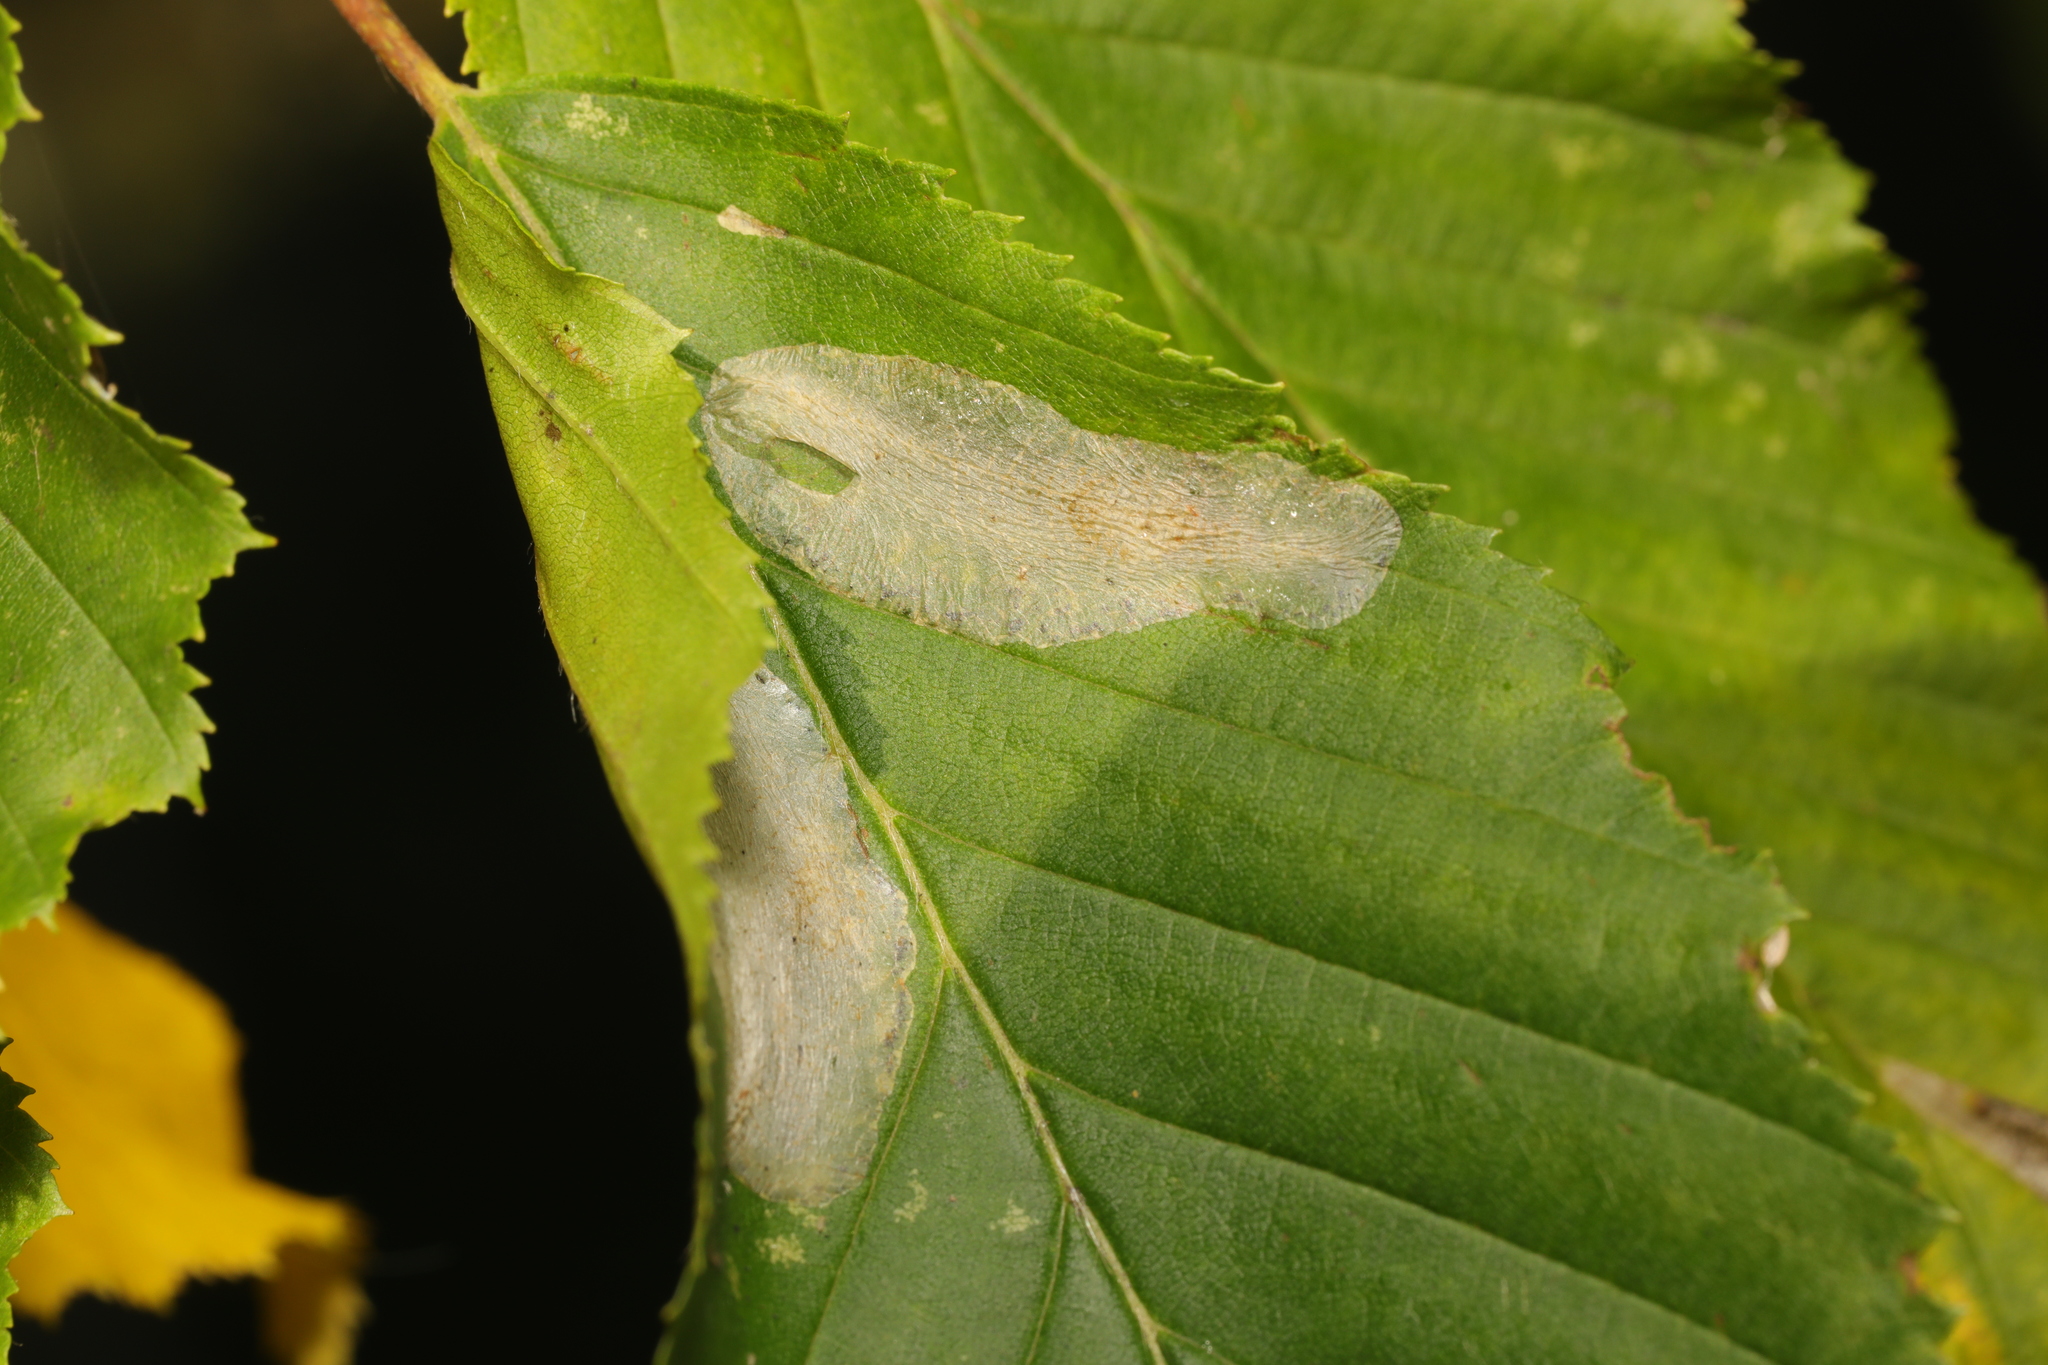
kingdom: Animalia
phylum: Arthropoda
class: Insecta
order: Lepidoptera
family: Gracillariidae
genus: Phyllonorycter
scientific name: Phyllonorycter esperella
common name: Dark hornbeam midget
